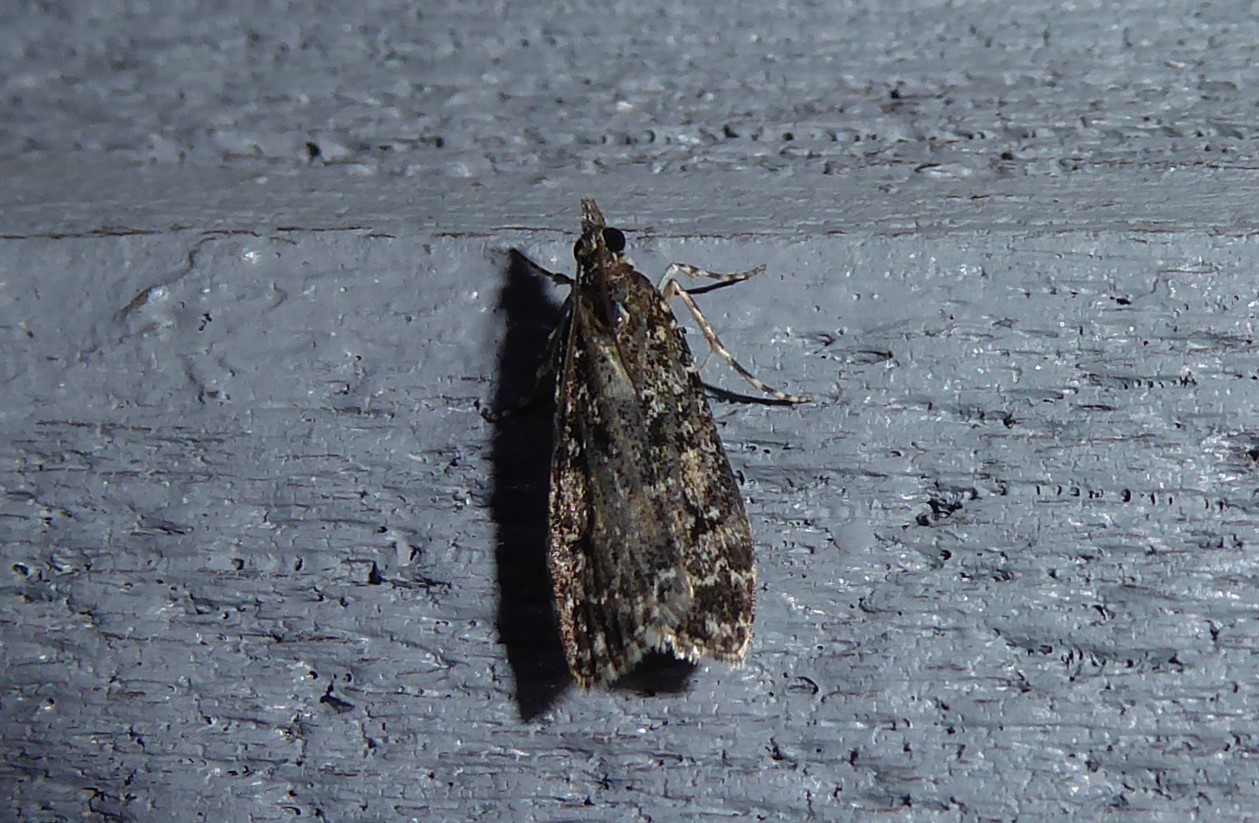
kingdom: Animalia
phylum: Arthropoda
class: Insecta
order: Lepidoptera
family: Crambidae
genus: Eudonia
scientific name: Eudonia philerga
